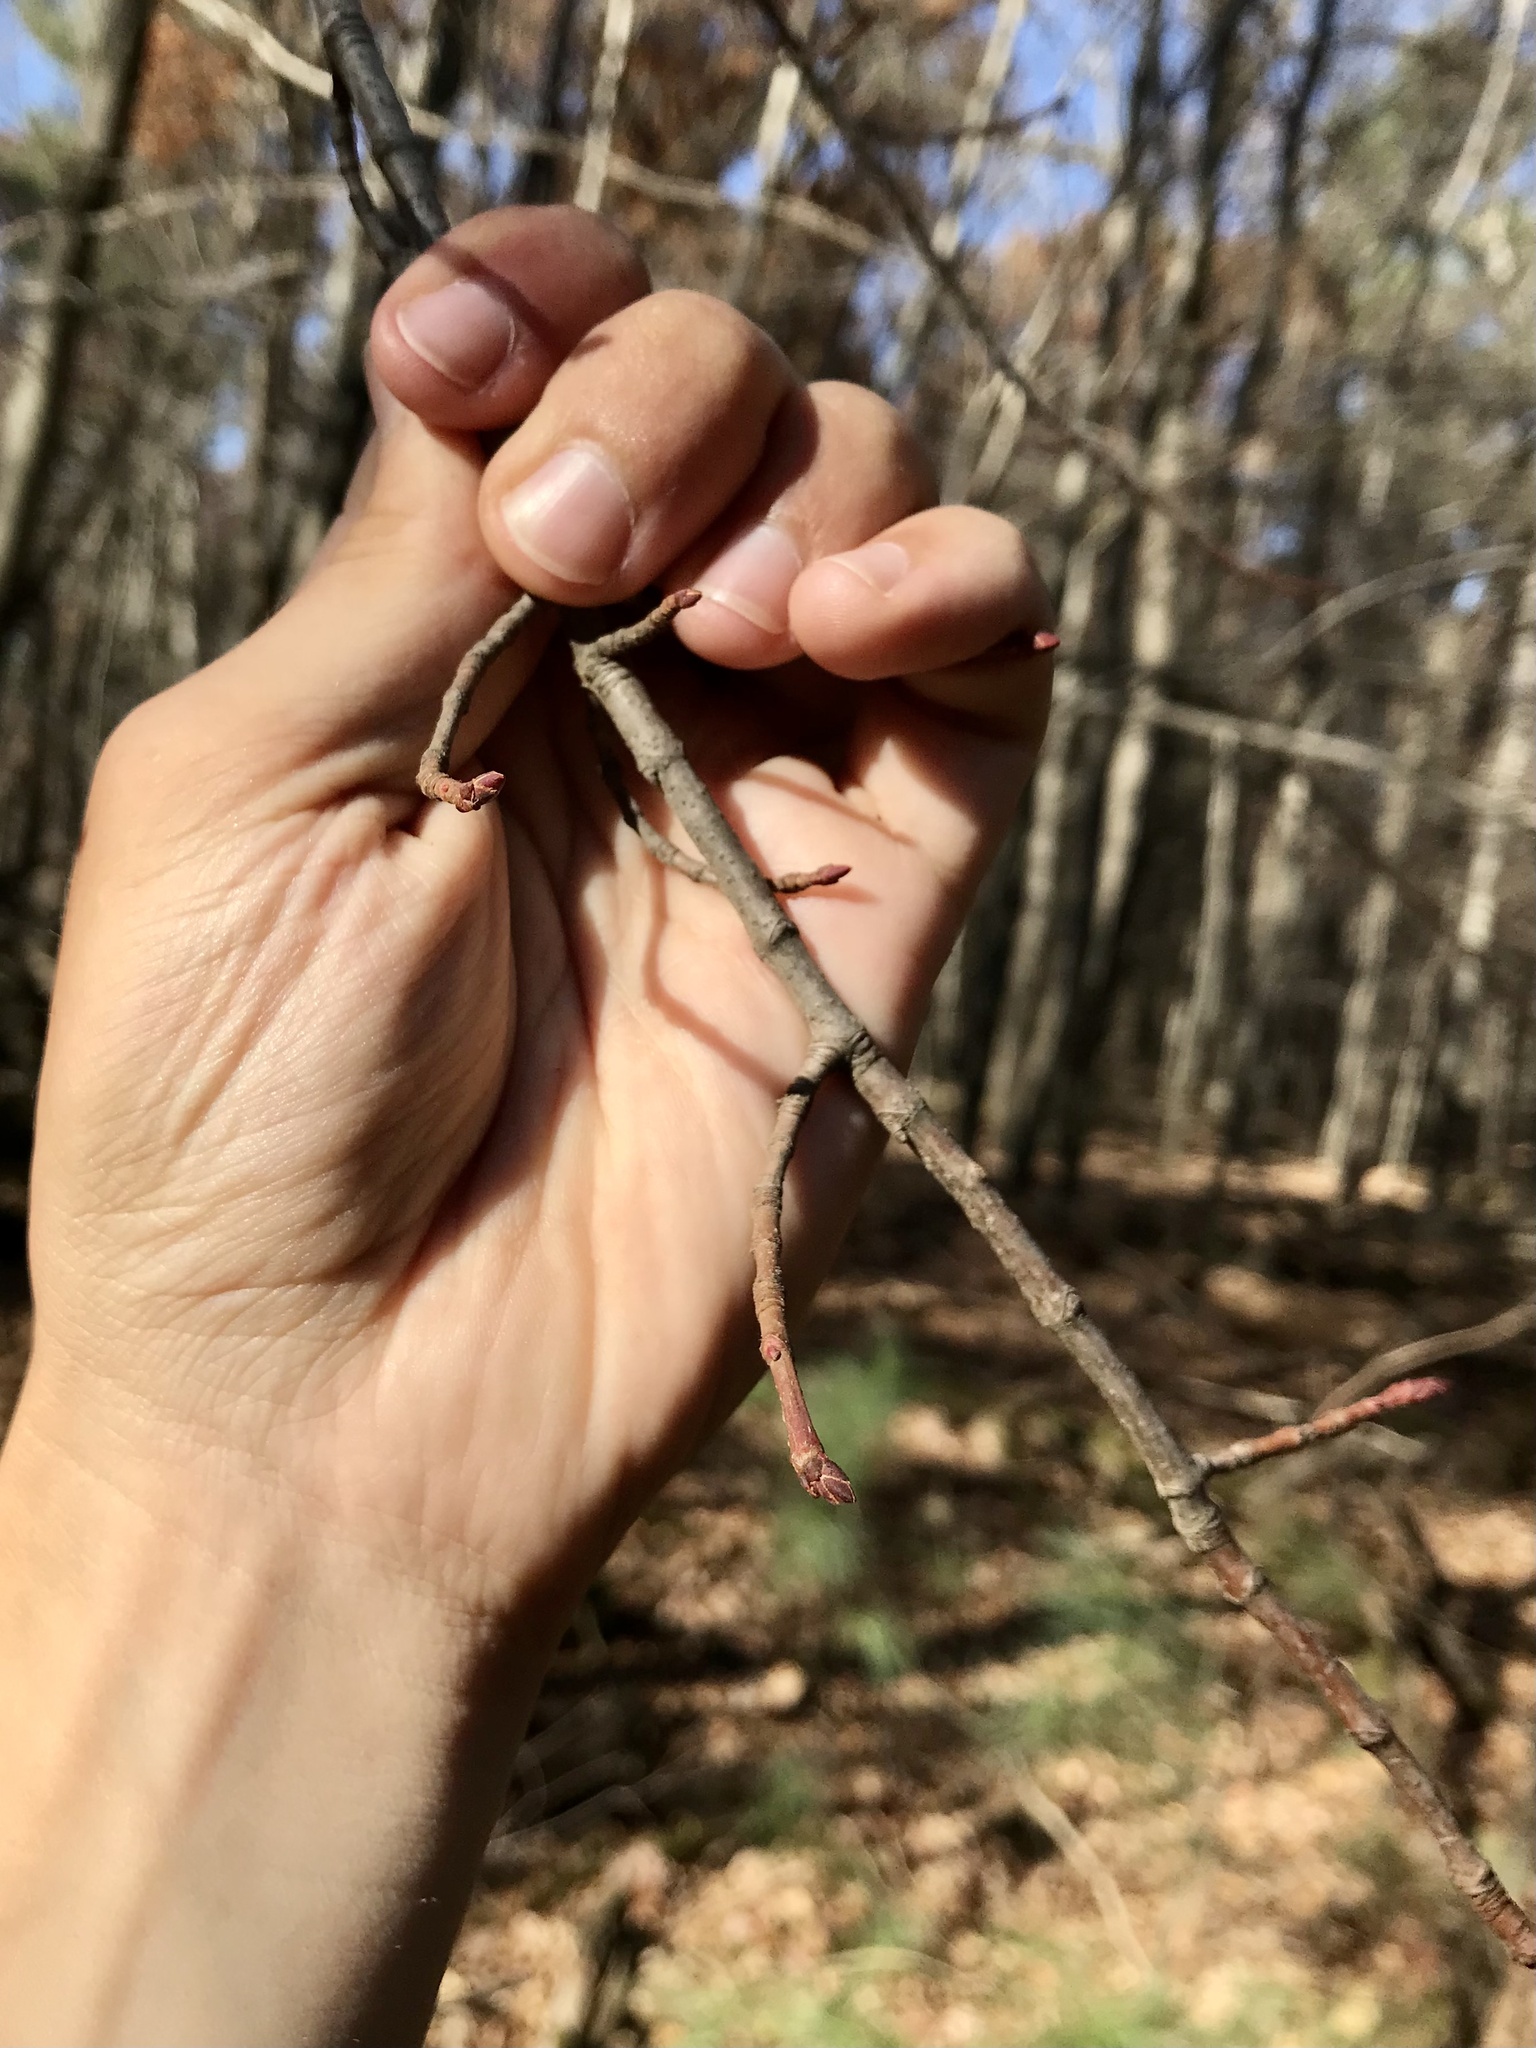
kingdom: Plantae
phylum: Tracheophyta
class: Magnoliopsida
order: Sapindales
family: Sapindaceae
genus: Acer
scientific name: Acer rubrum
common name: Red maple
